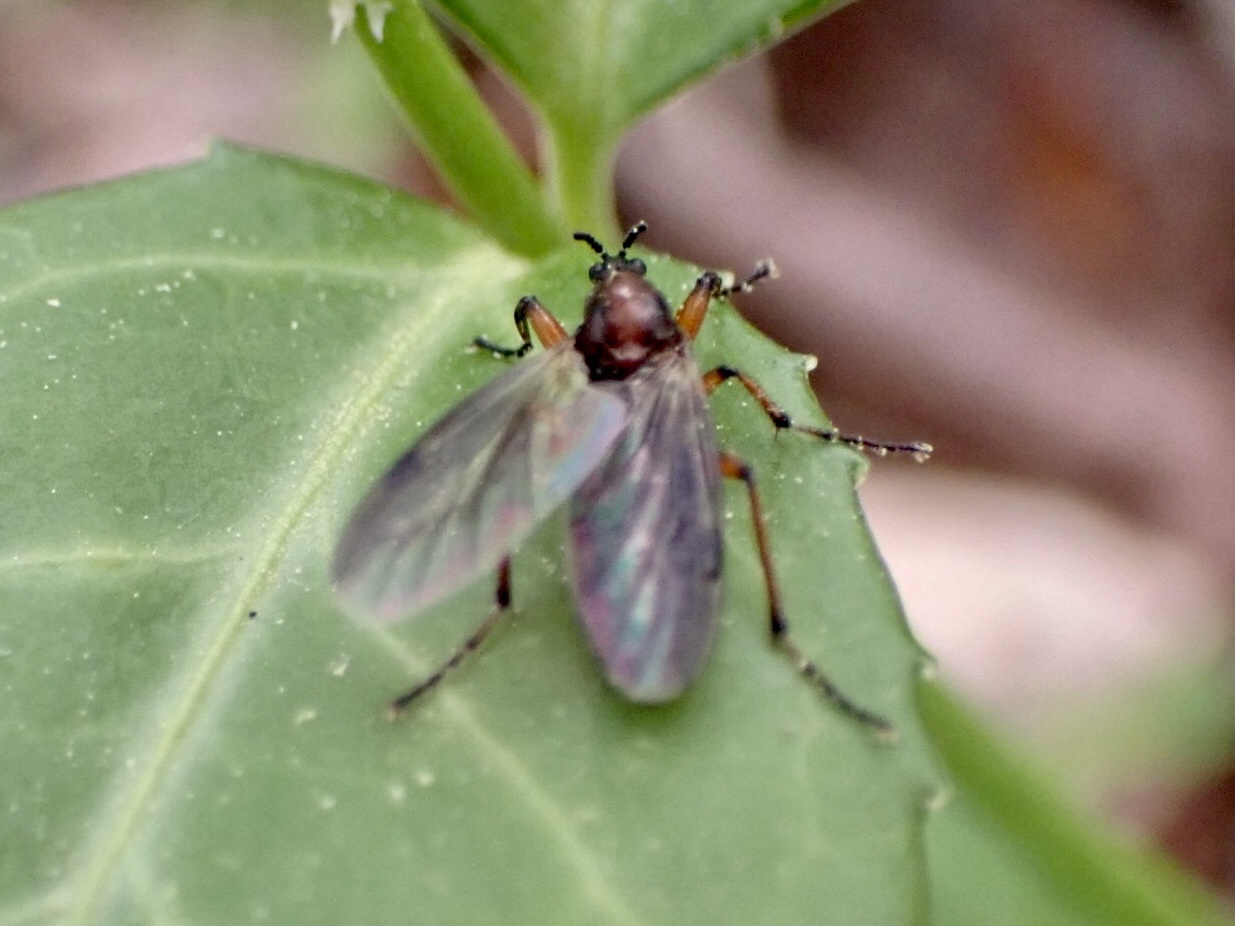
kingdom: Animalia
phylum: Arthropoda
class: Insecta
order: Diptera
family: Bibionidae
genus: Bibio
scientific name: Bibio articulatus
